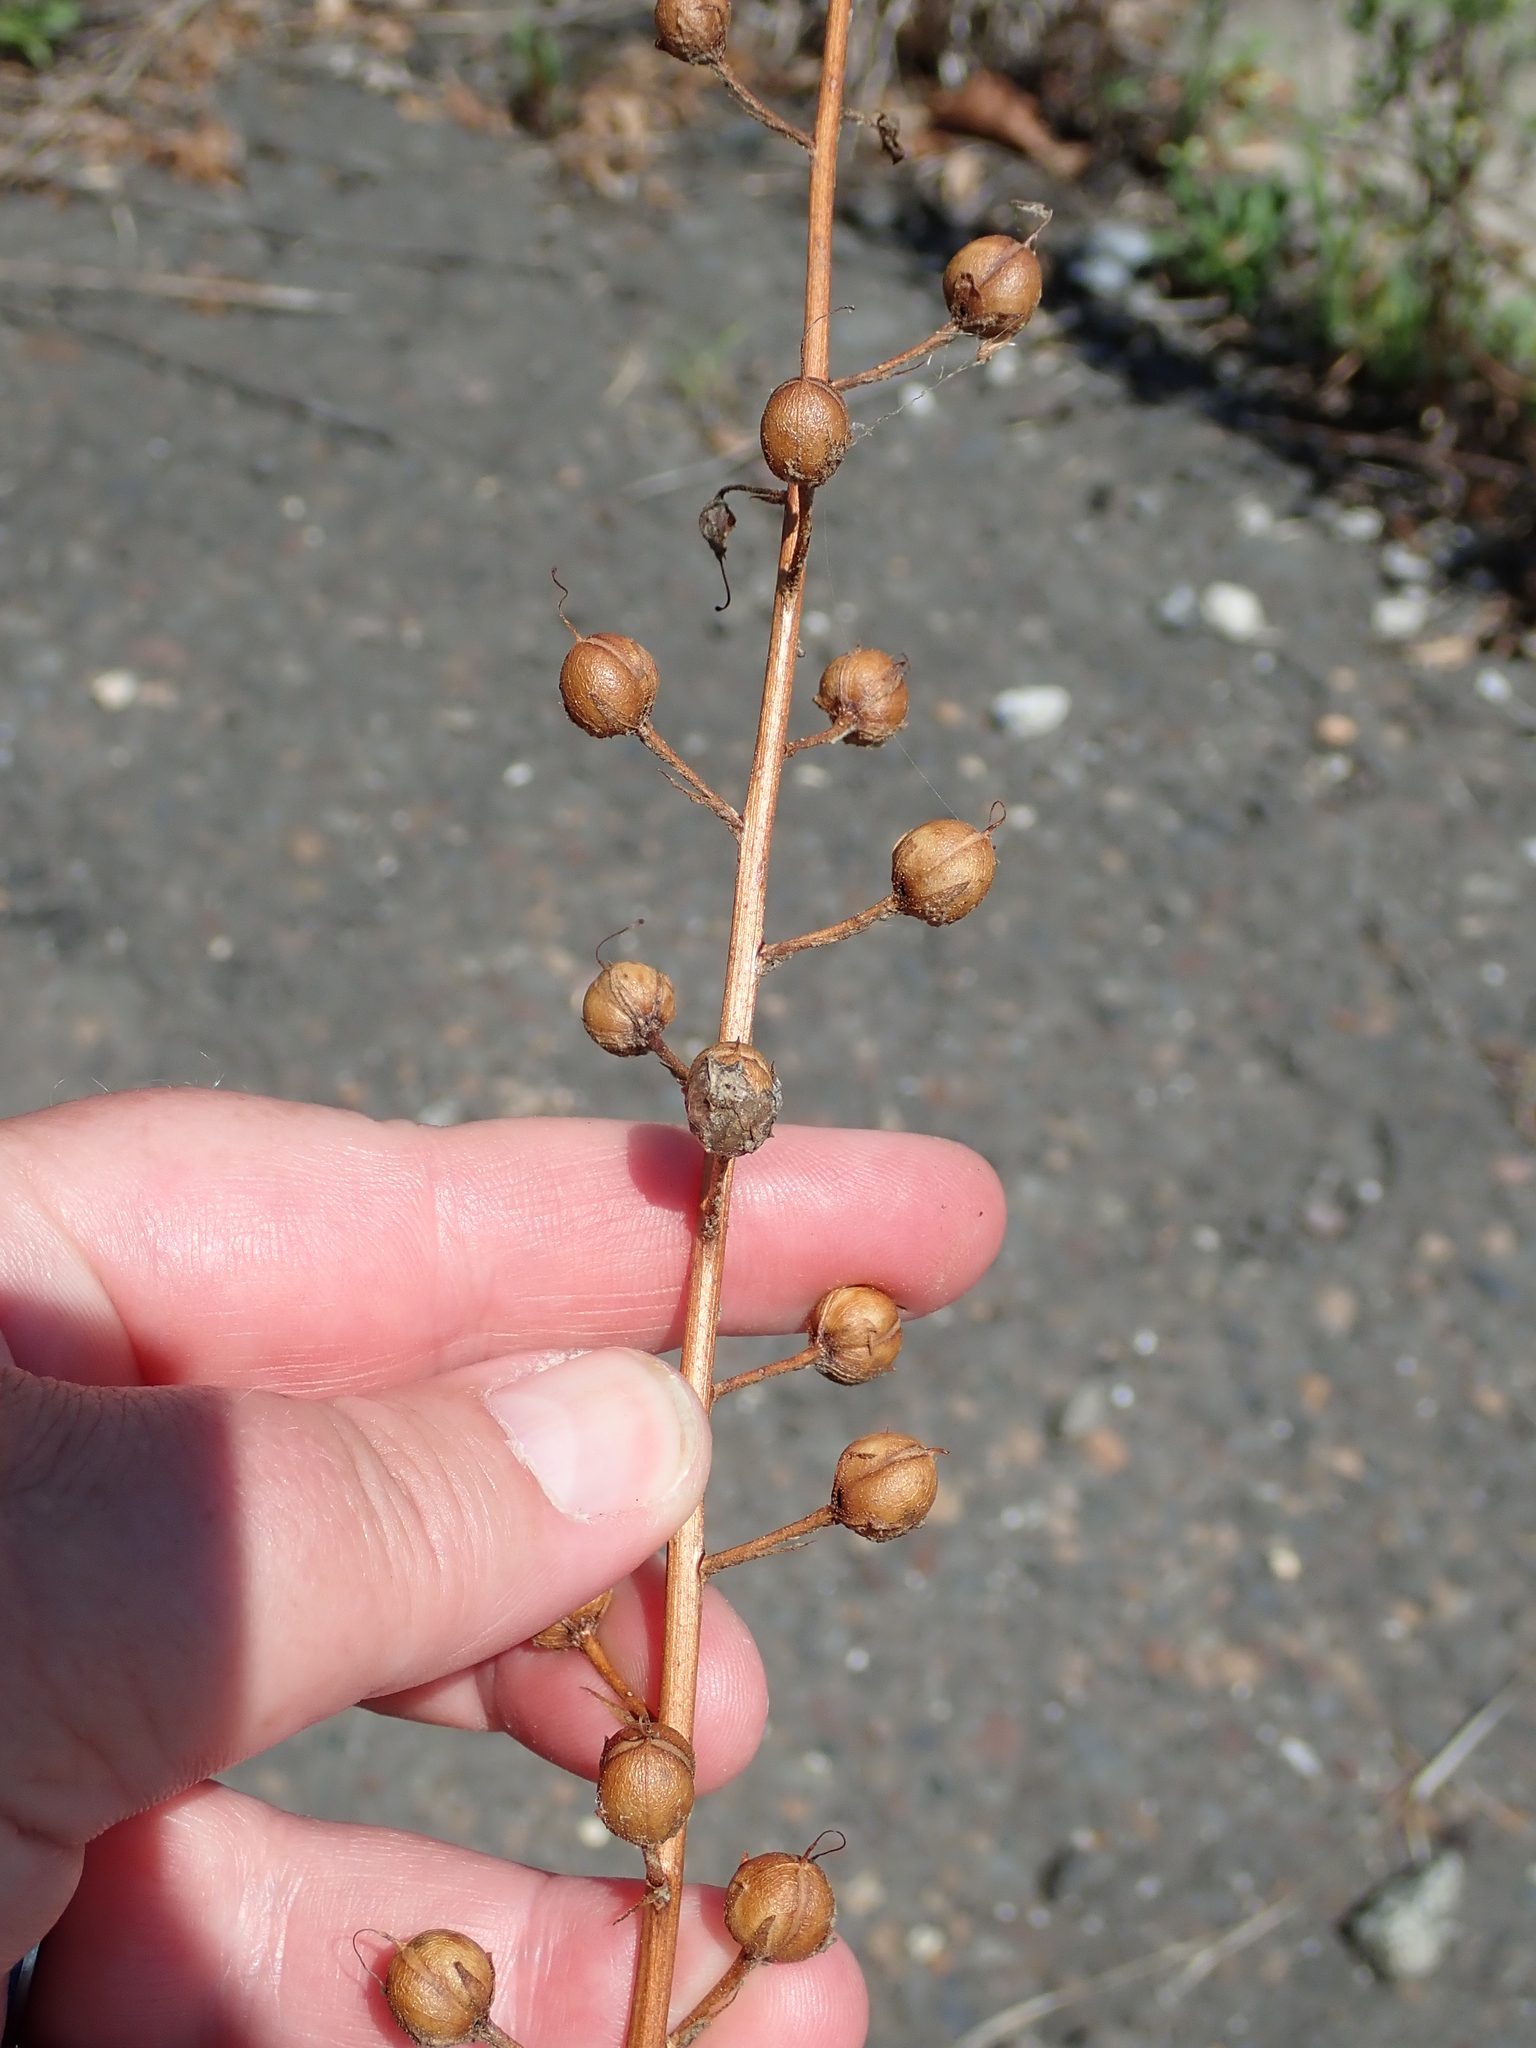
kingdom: Plantae
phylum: Tracheophyta
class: Magnoliopsida
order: Lamiales
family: Scrophulariaceae
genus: Verbascum
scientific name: Verbascum blattaria
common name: Moth mullein
